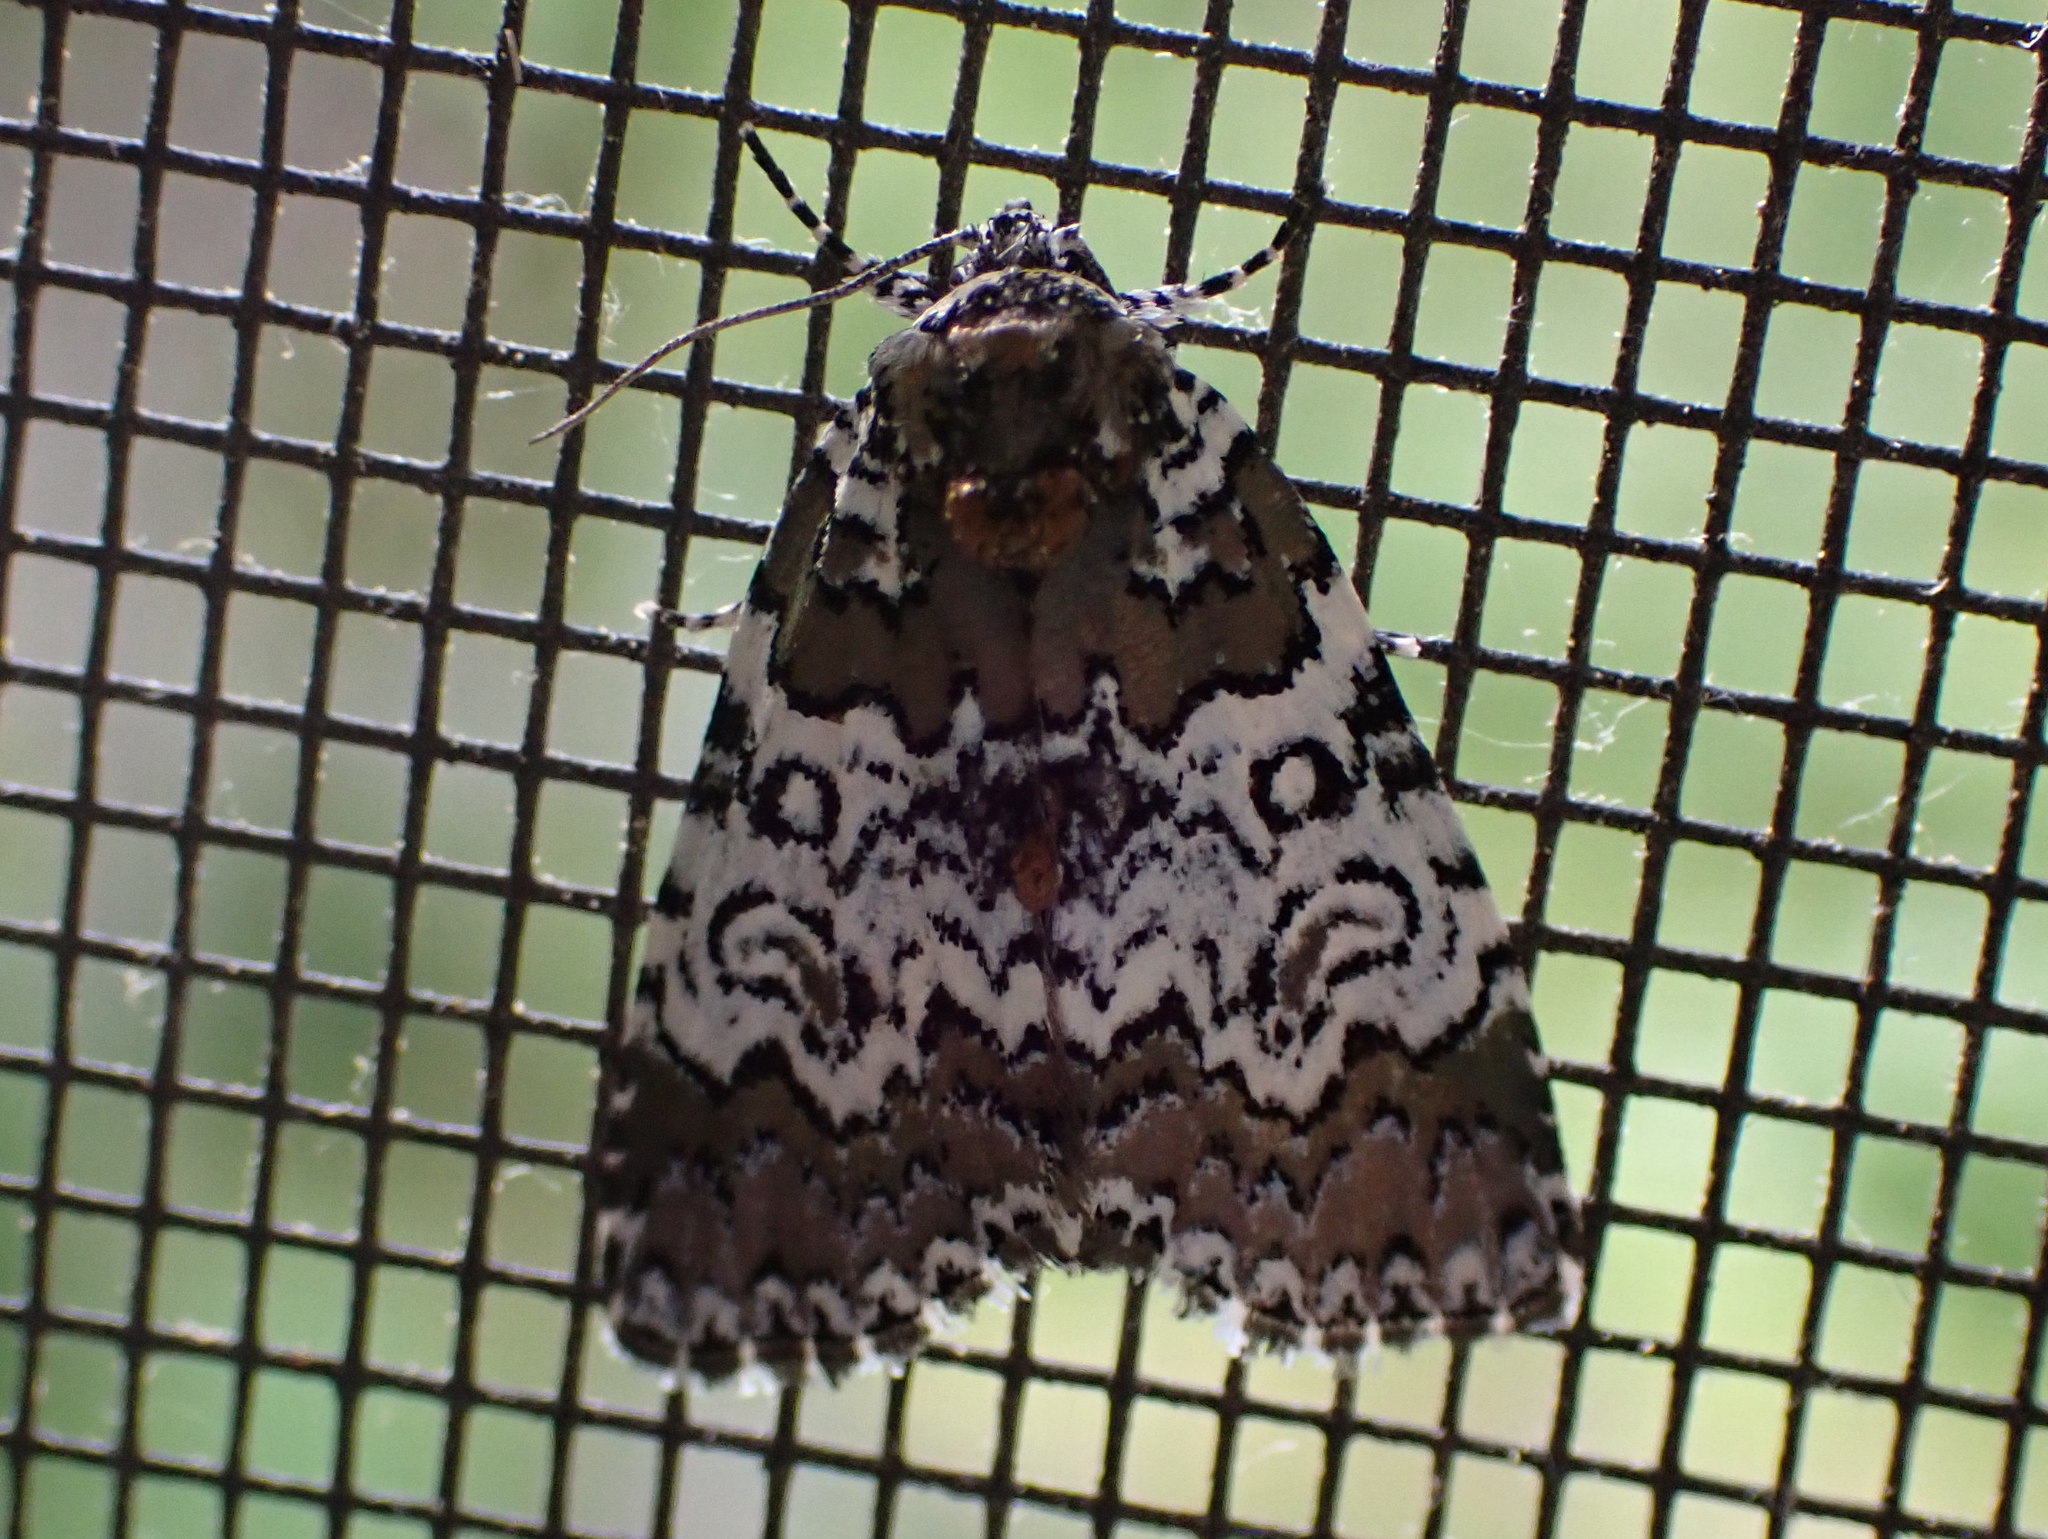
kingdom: Animalia
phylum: Arthropoda
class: Insecta
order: Lepidoptera
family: Noctuidae
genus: Cerma
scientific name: Cerma cora
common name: Bird dropping moth
